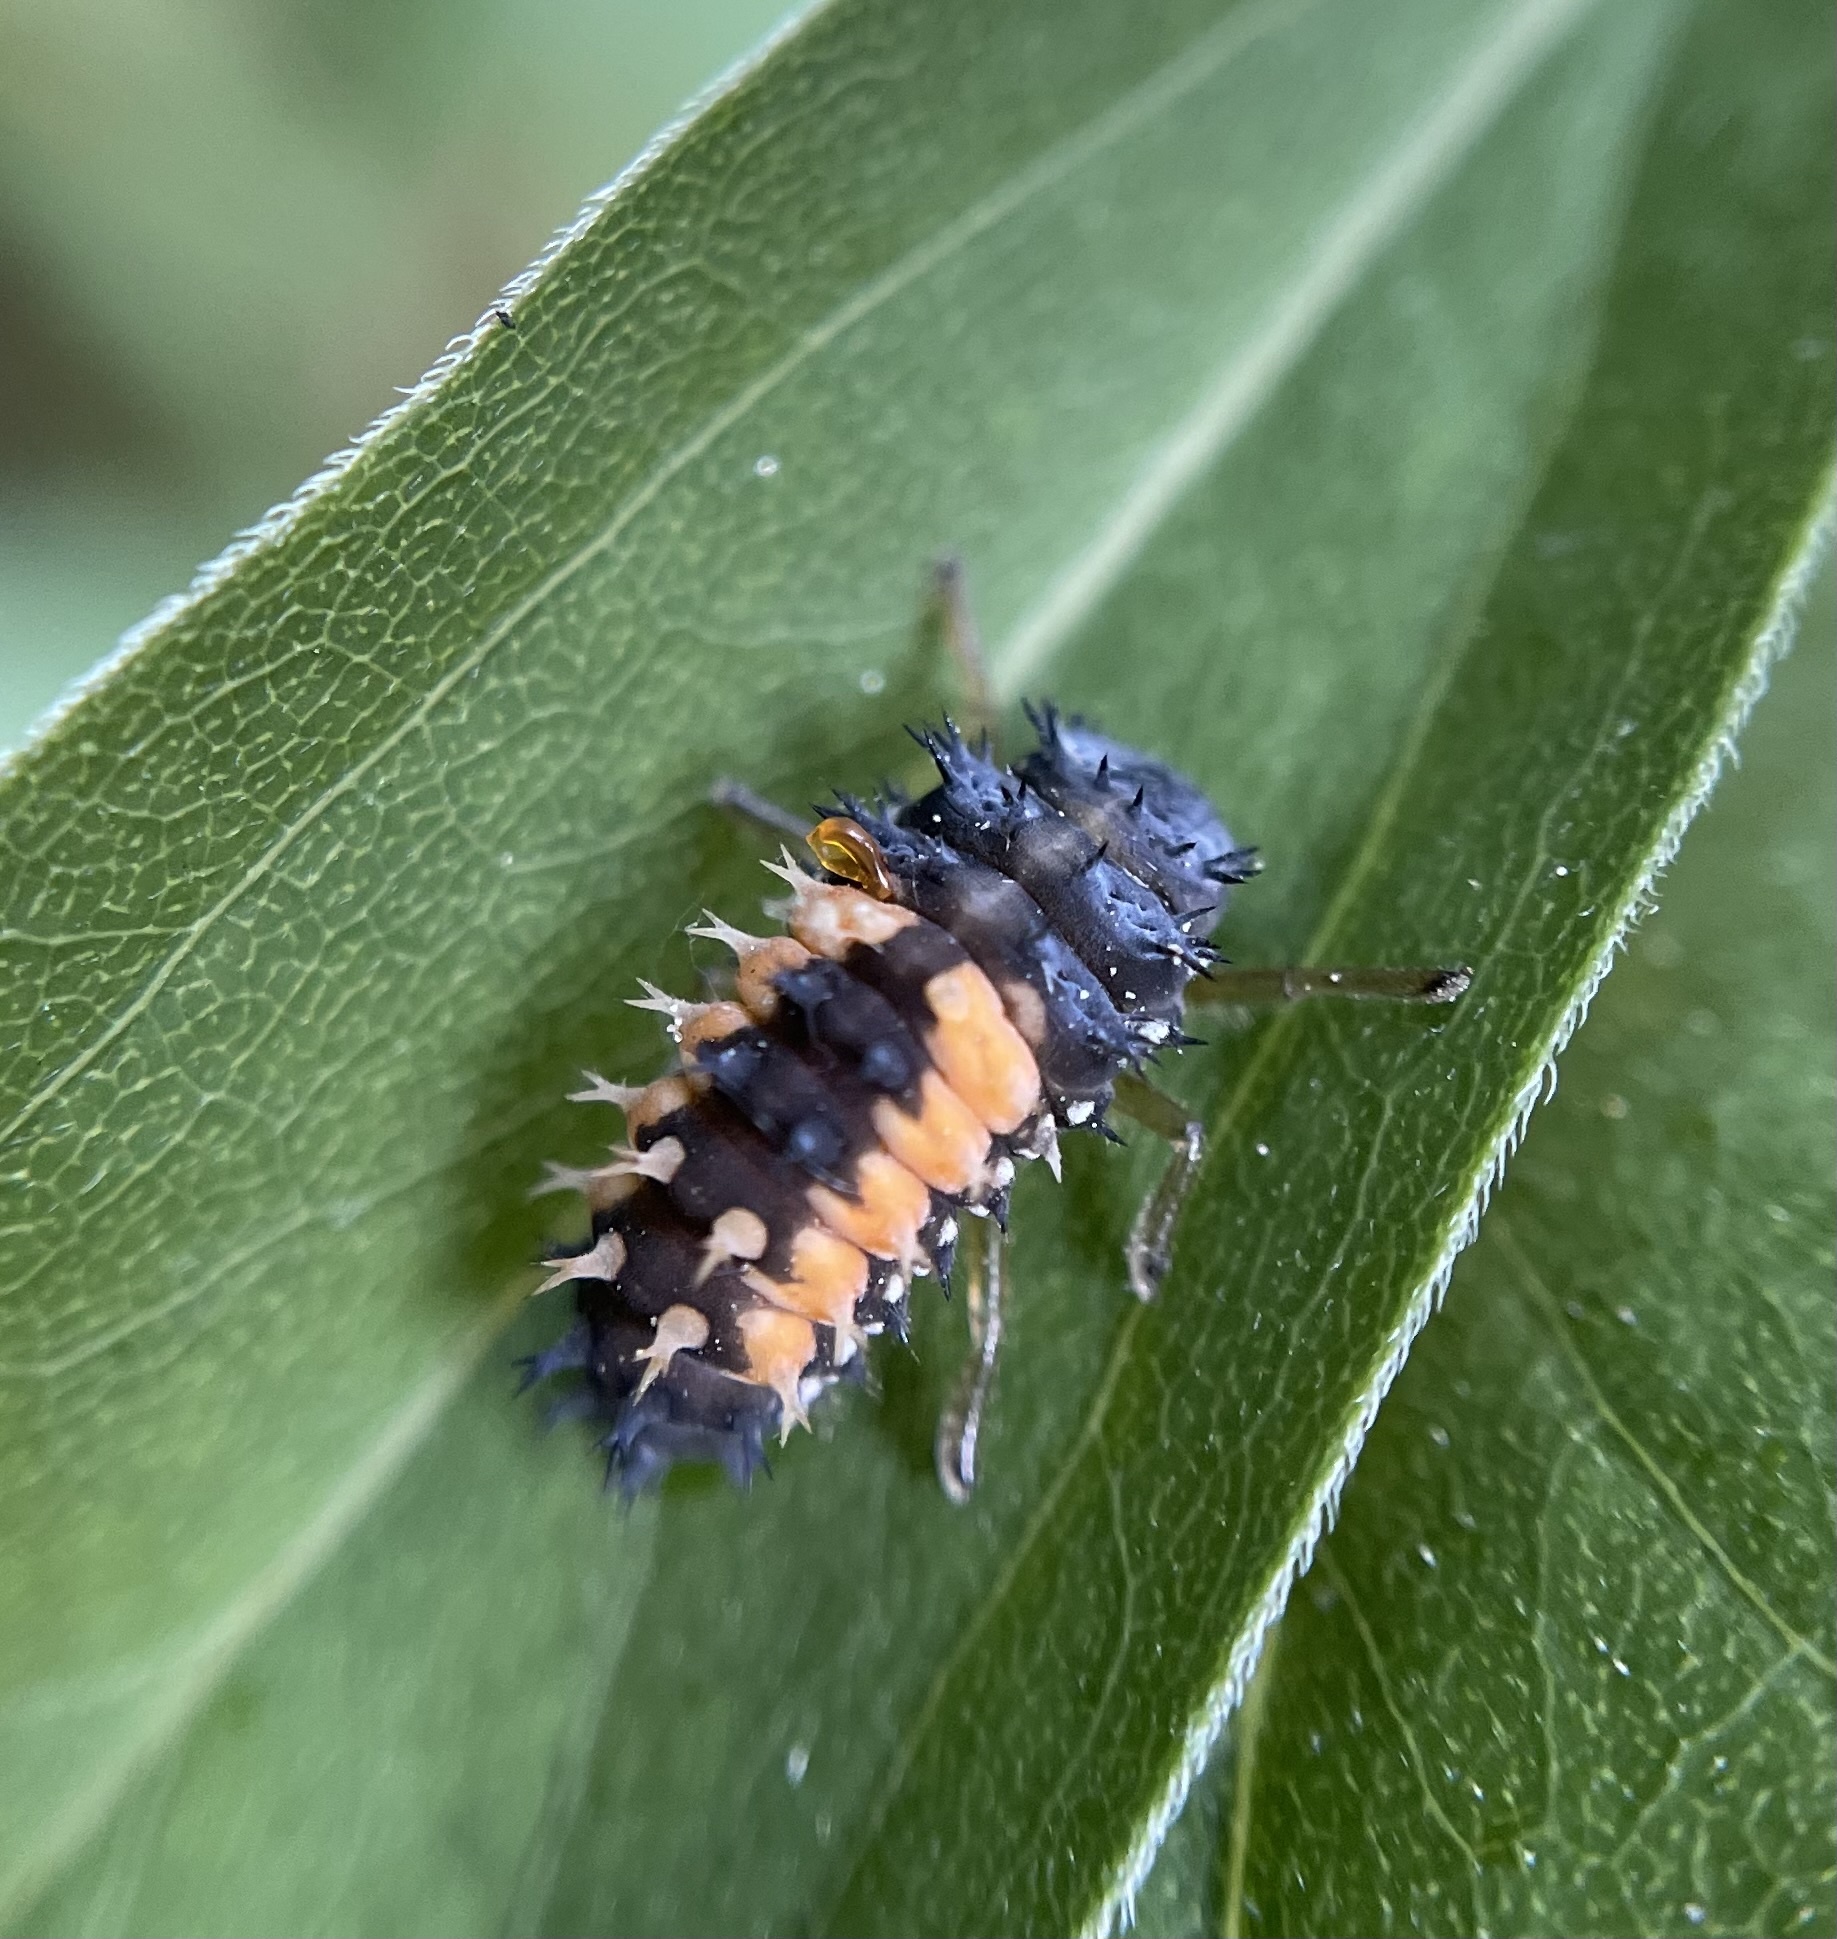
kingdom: Animalia
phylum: Arthropoda
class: Insecta
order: Coleoptera
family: Coccinellidae
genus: Harmonia
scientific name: Harmonia axyridis
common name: Harlequin ladybird
